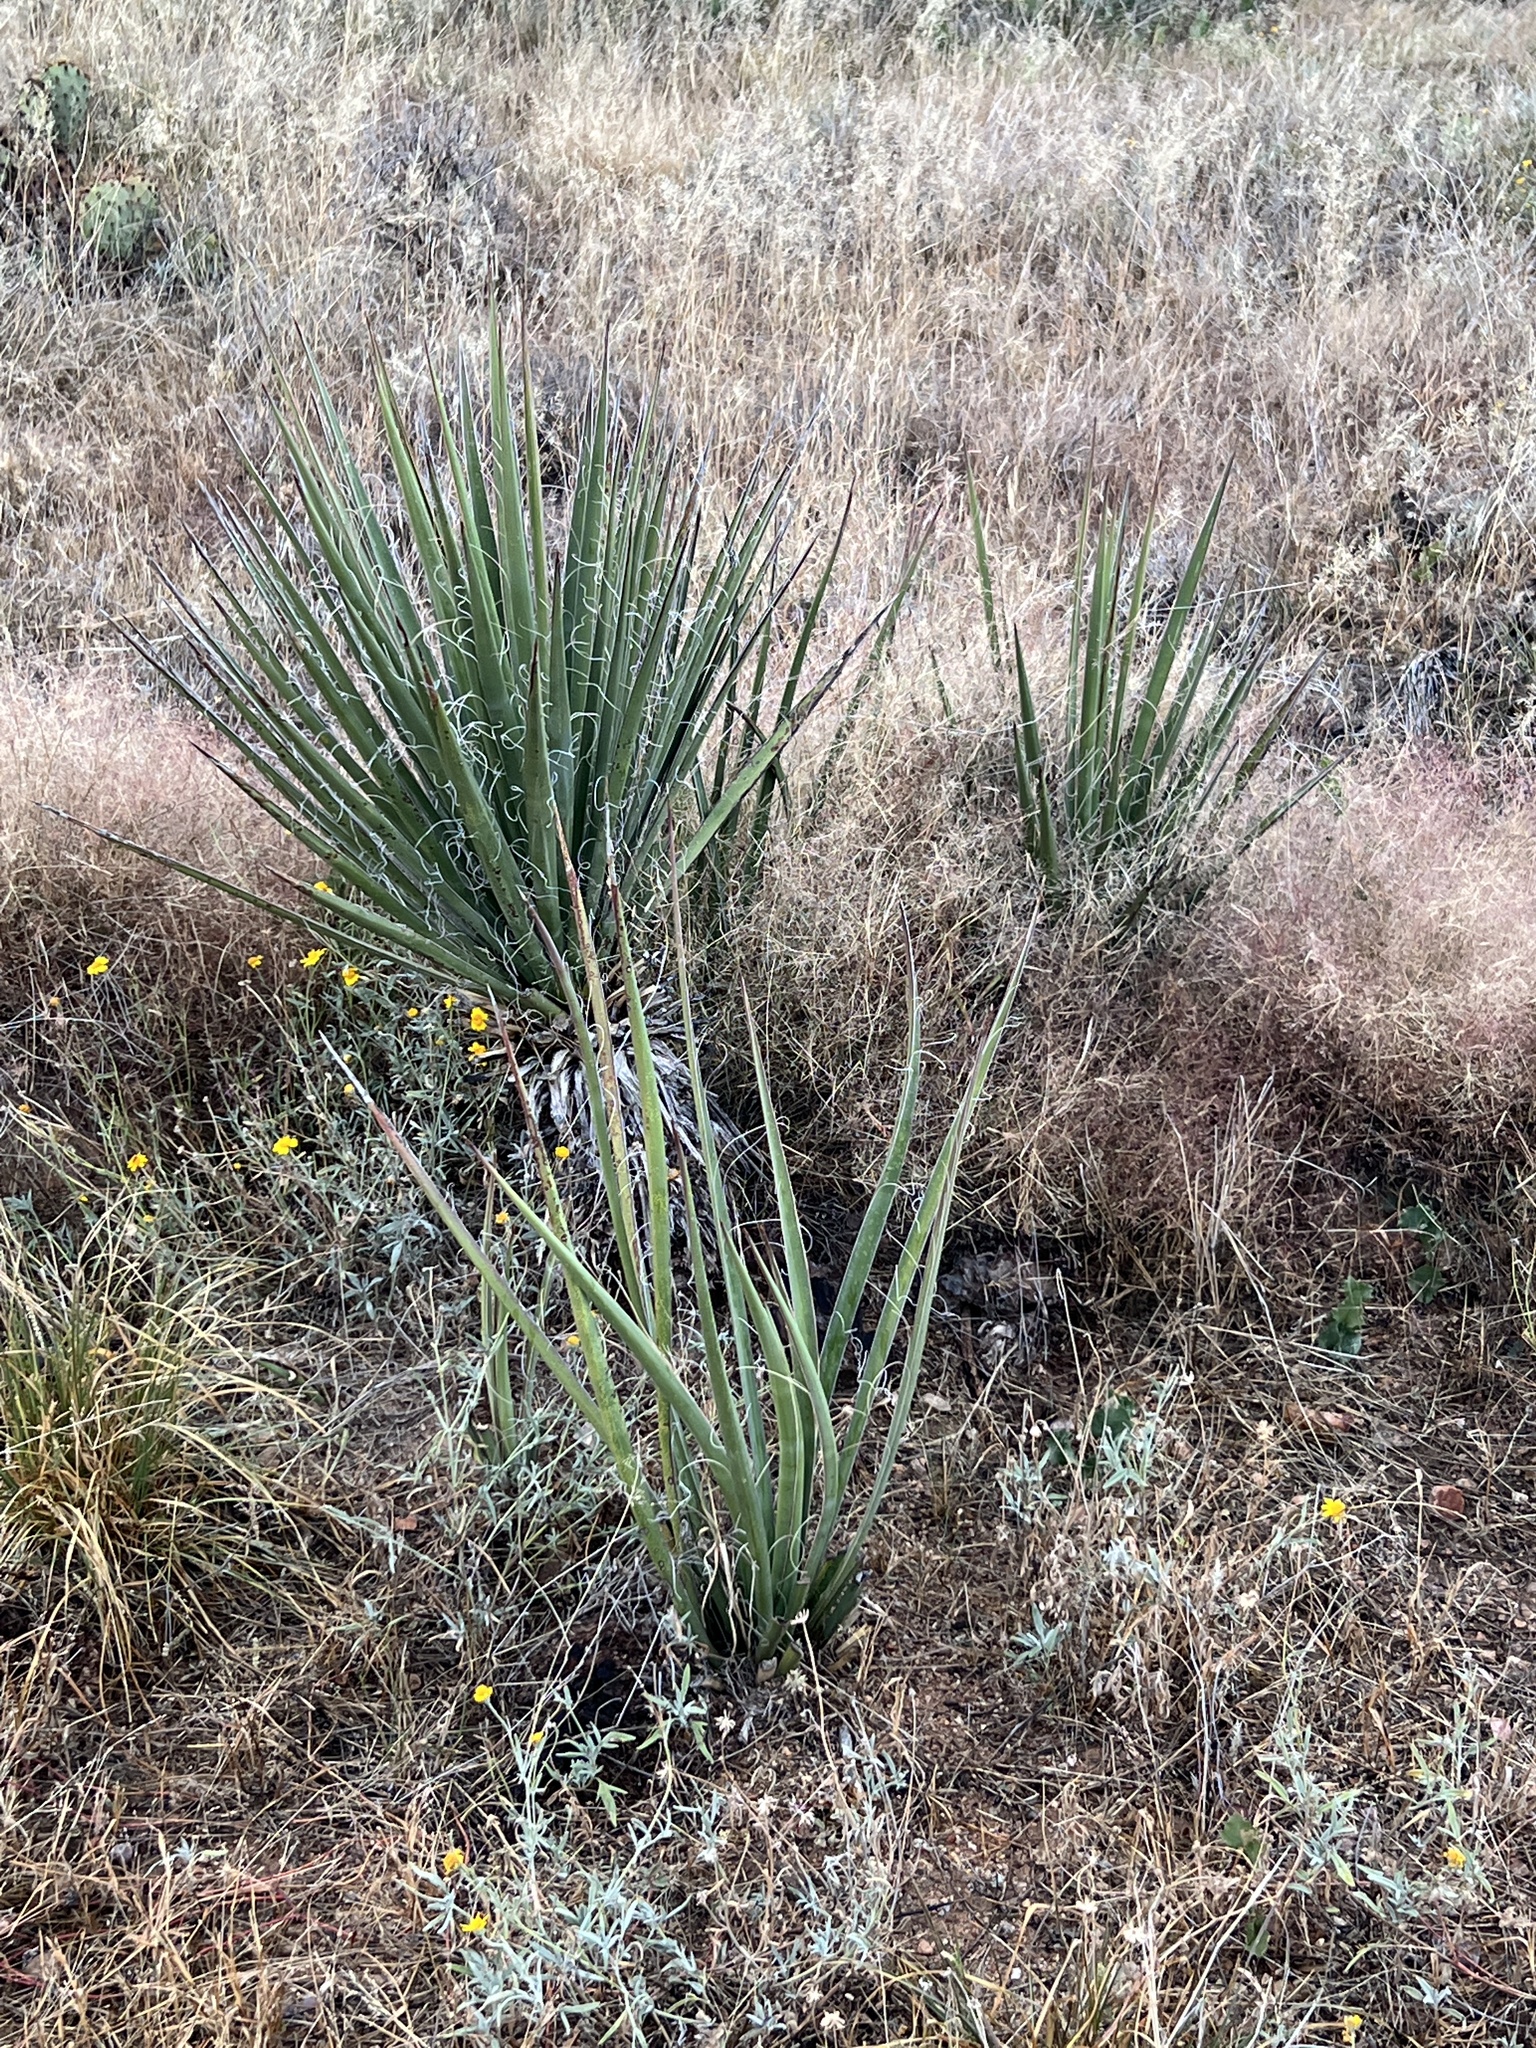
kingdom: Plantae
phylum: Tracheophyta
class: Liliopsida
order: Asparagales
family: Asparagaceae
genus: Yucca
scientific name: Yucca baccata
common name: Banana yucca
